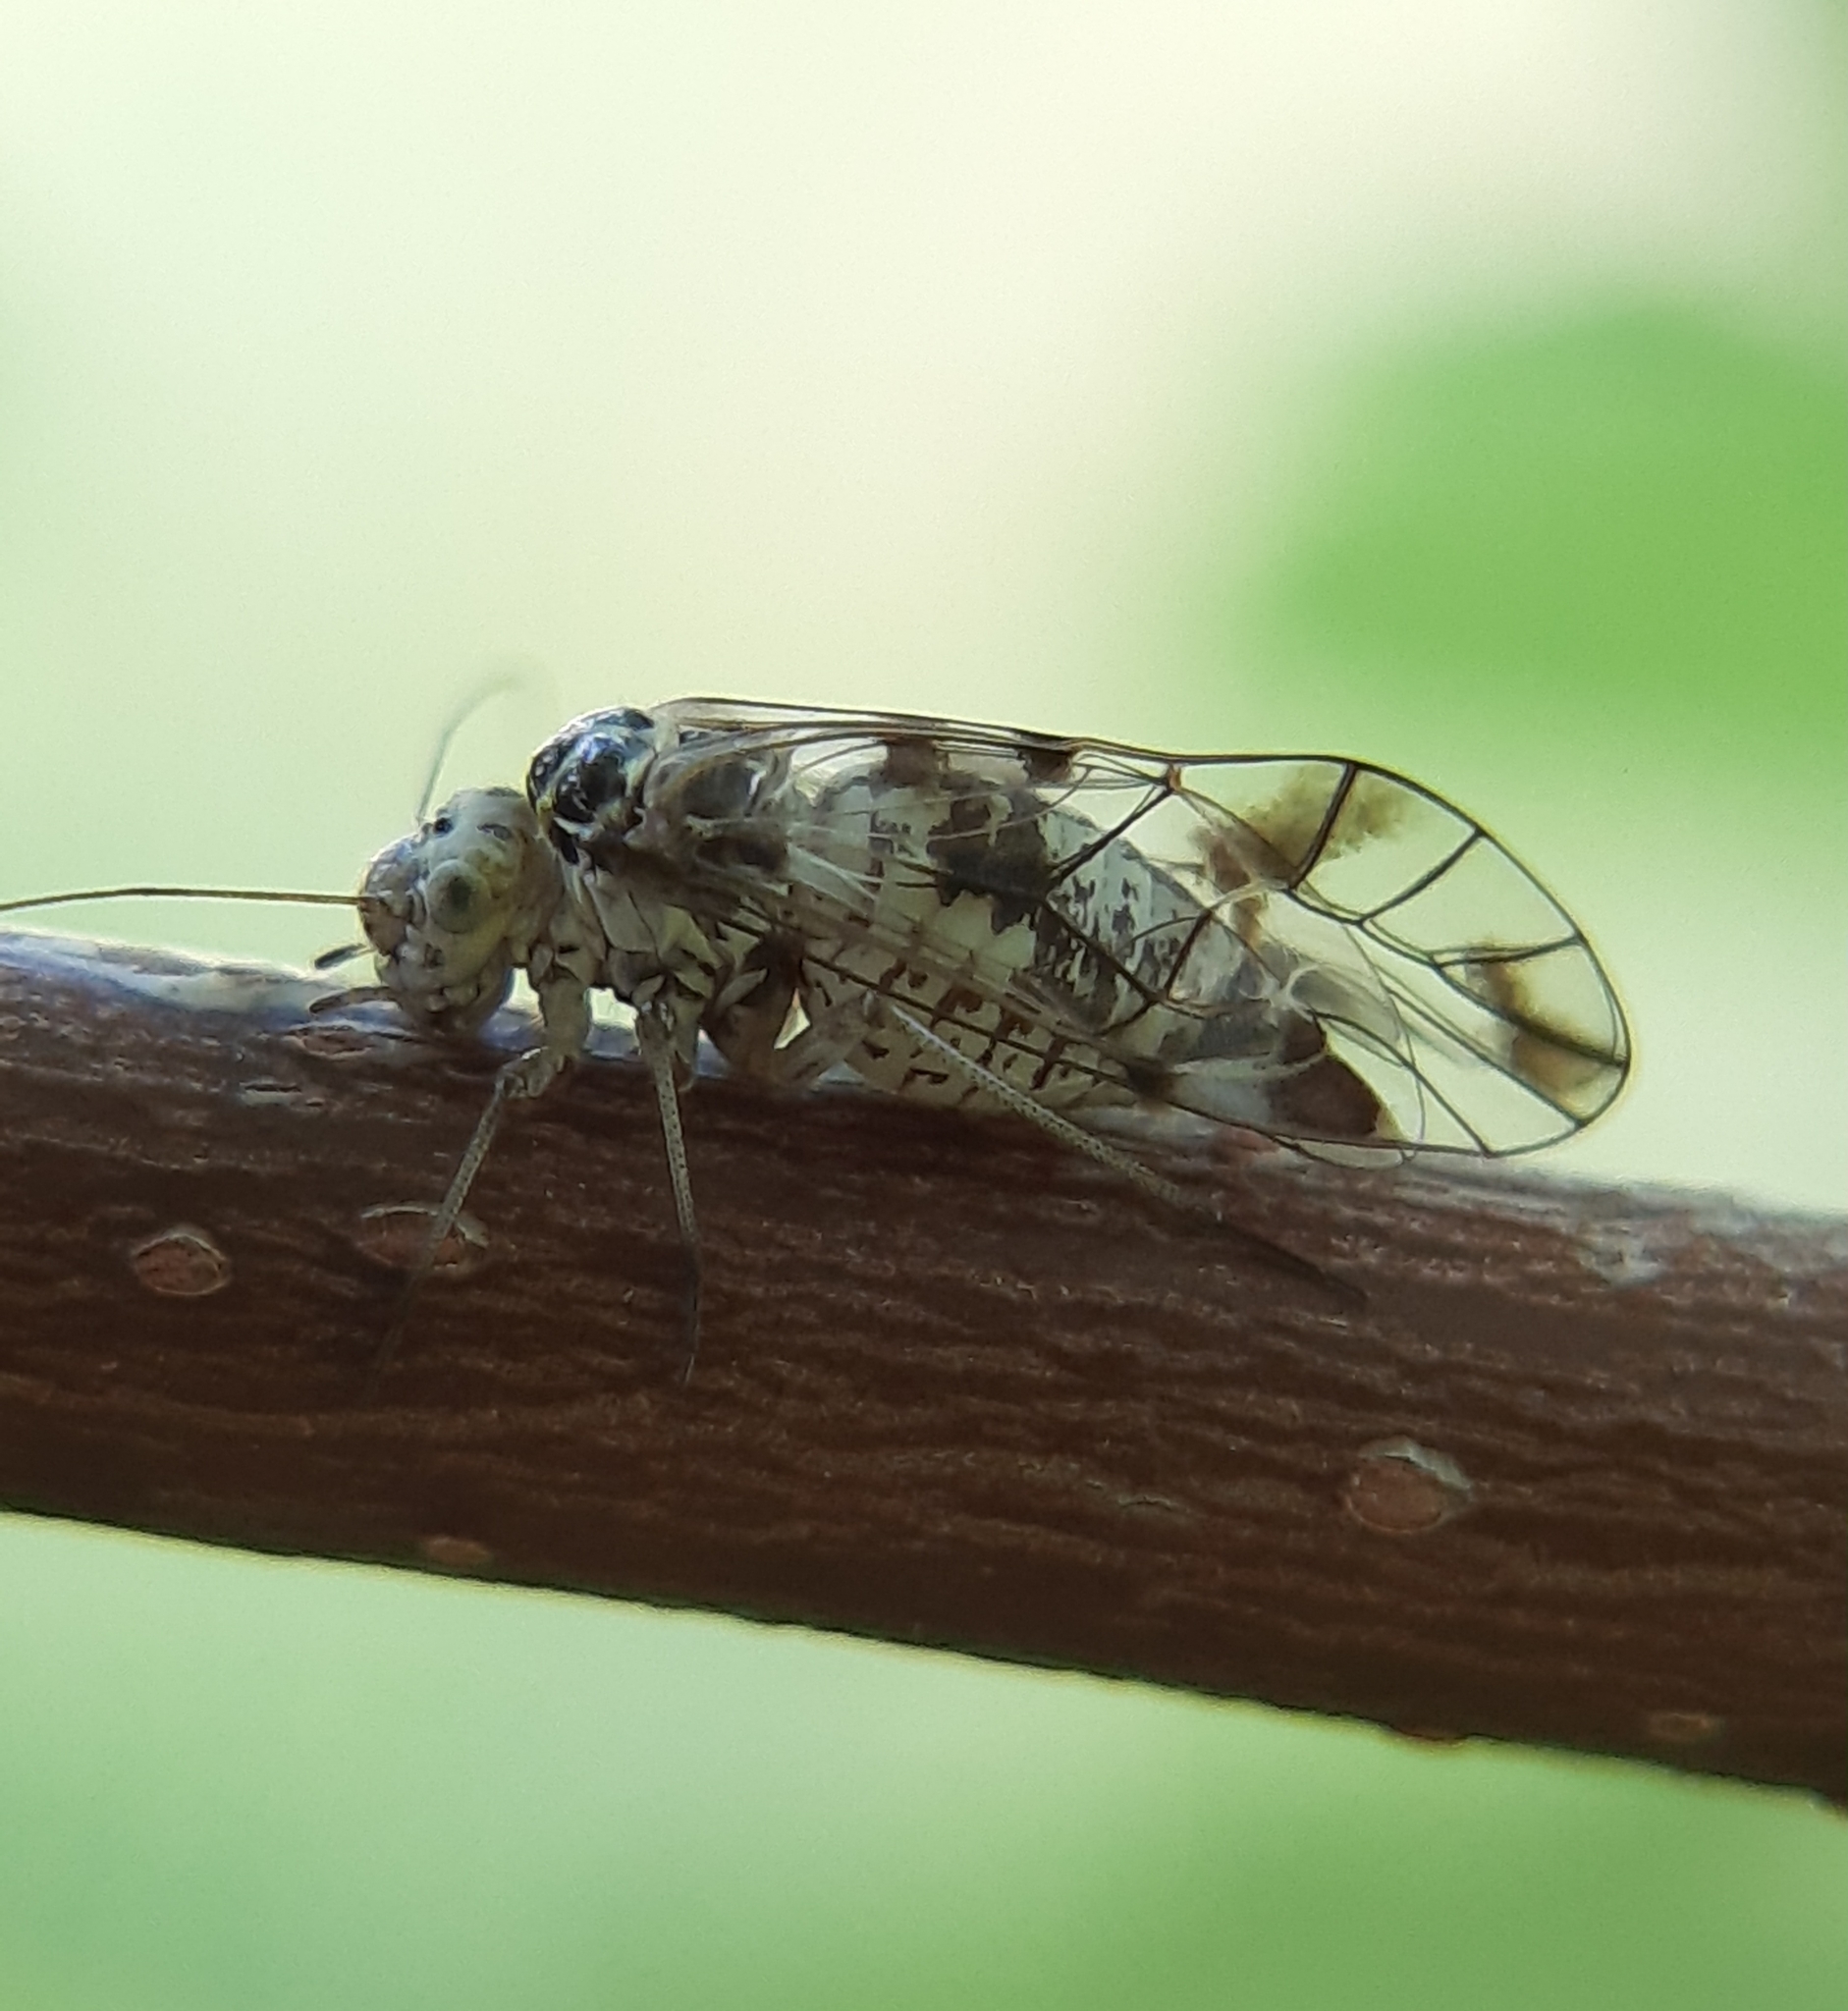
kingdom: Animalia
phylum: Arthropoda
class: Insecta
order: Psocodea
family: Psocidae
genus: Metylophorus
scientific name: Metylophorus novaescotiae
